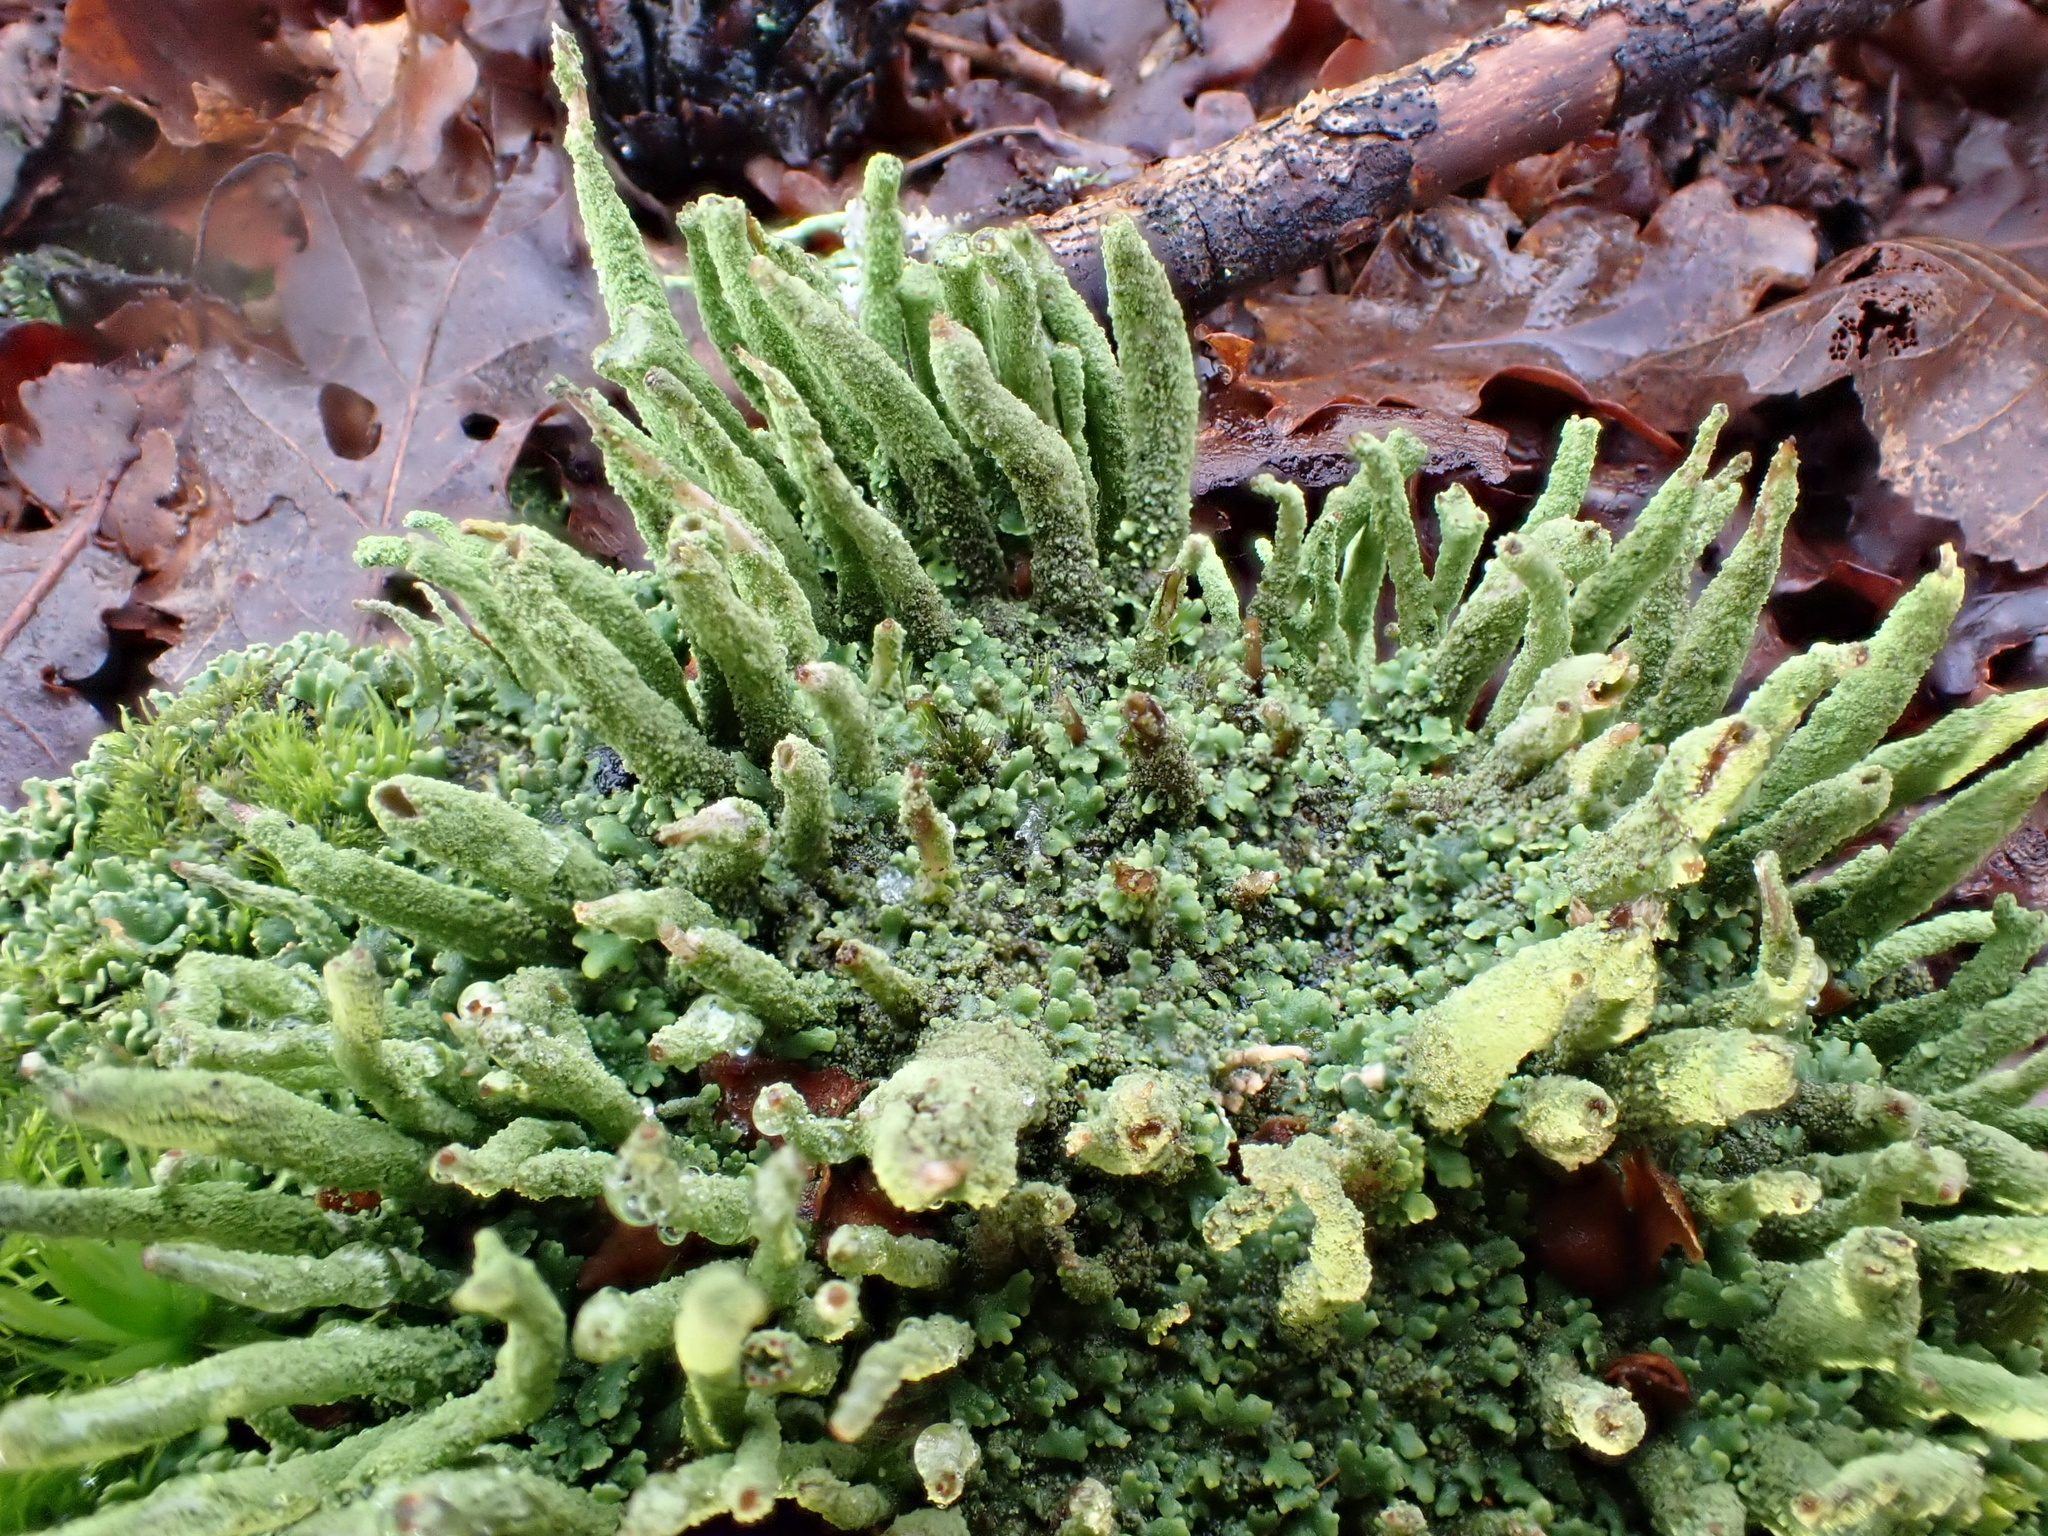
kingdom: Fungi
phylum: Ascomycota
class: Lecanoromycetes
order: Lecanorales
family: Cladoniaceae
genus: Cladonia
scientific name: Cladonia coniocraea
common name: Common powderhorn
